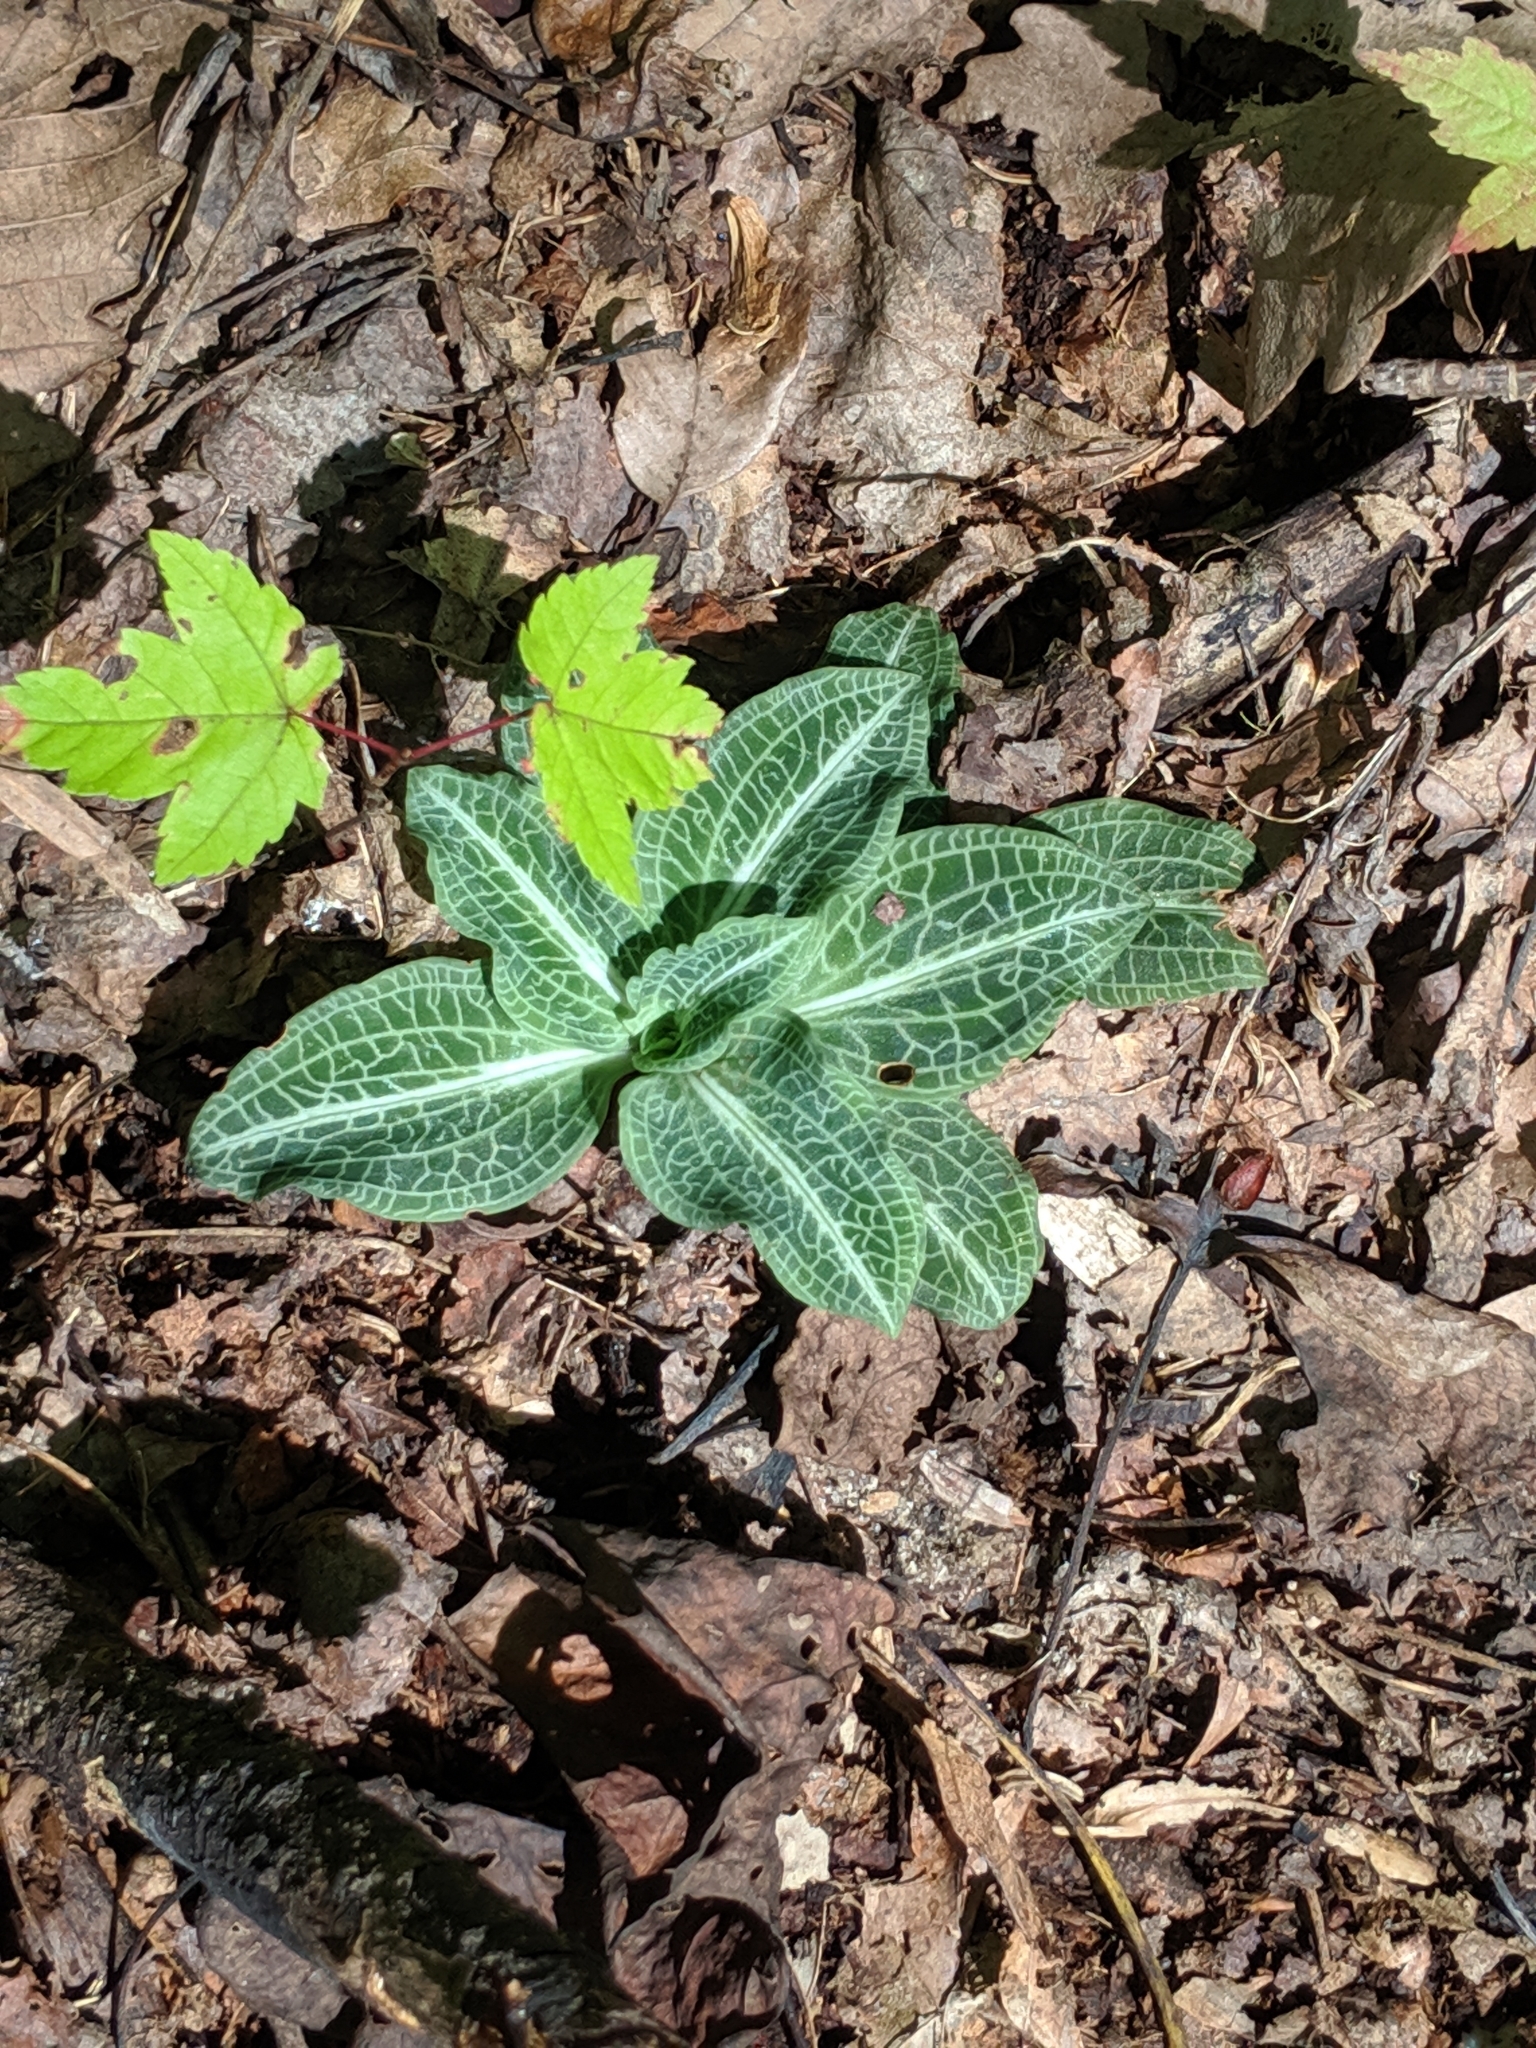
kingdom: Plantae
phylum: Tracheophyta
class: Liliopsida
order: Asparagales
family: Orchidaceae
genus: Goodyera
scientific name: Goodyera pubescens
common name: Downy rattlesnake-plantain
